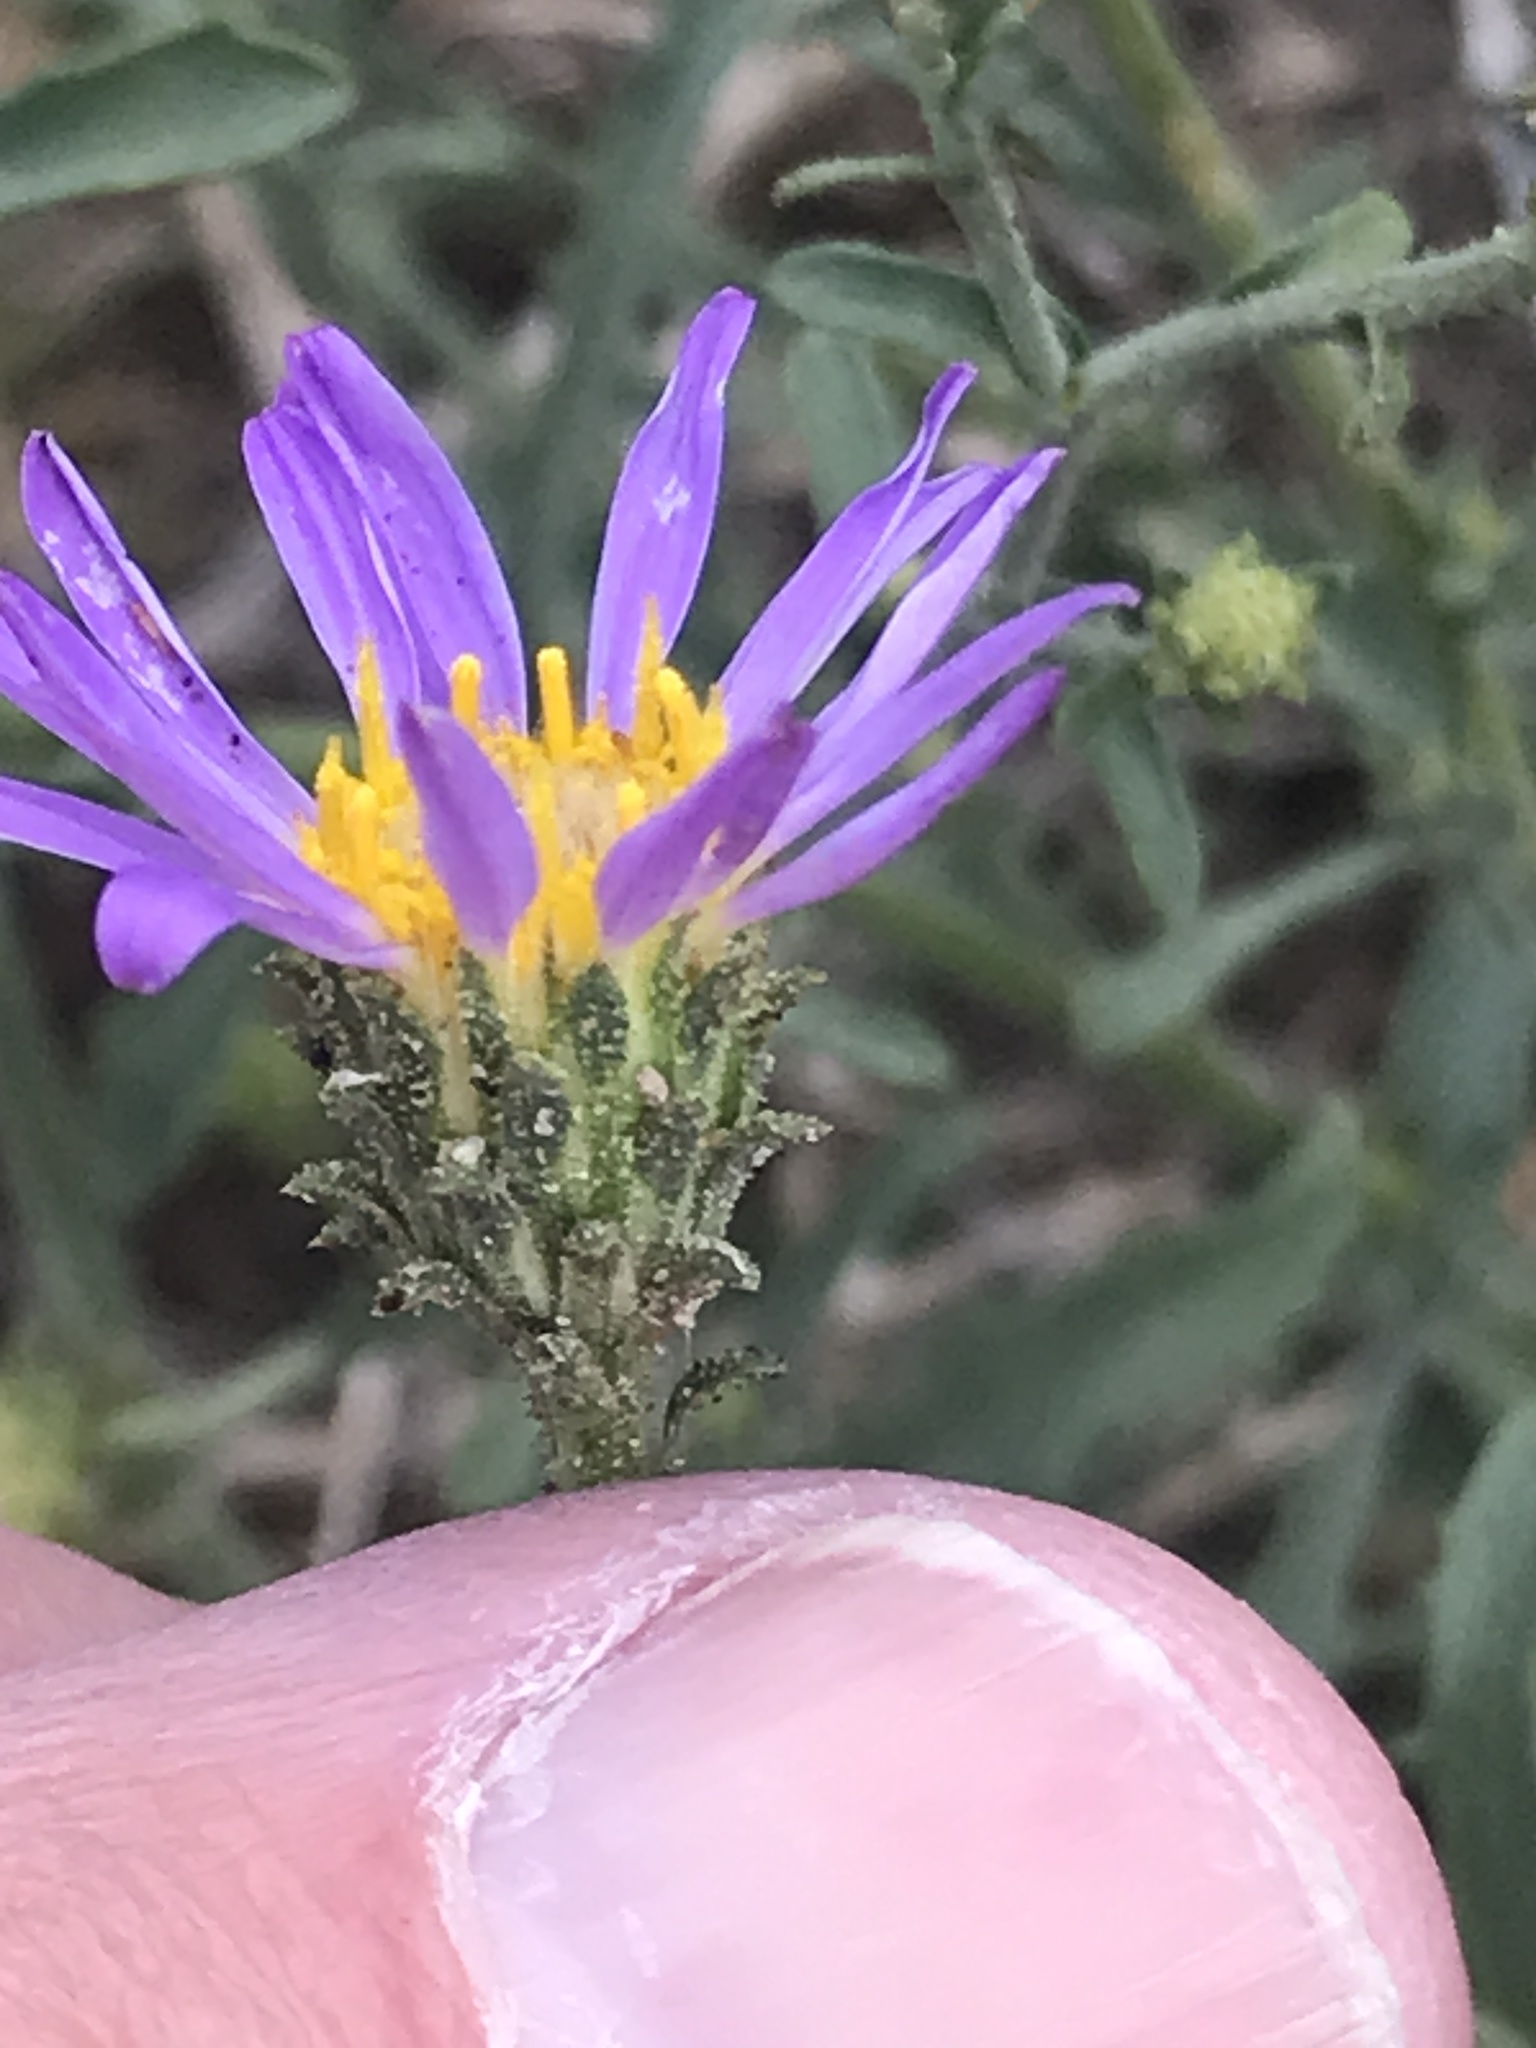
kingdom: Plantae
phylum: Tracheophyta
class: Magnoliopsida
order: Asterales
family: Asteraceae
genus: Dieteria
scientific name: Dieteria canescens
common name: Hoary-aster
